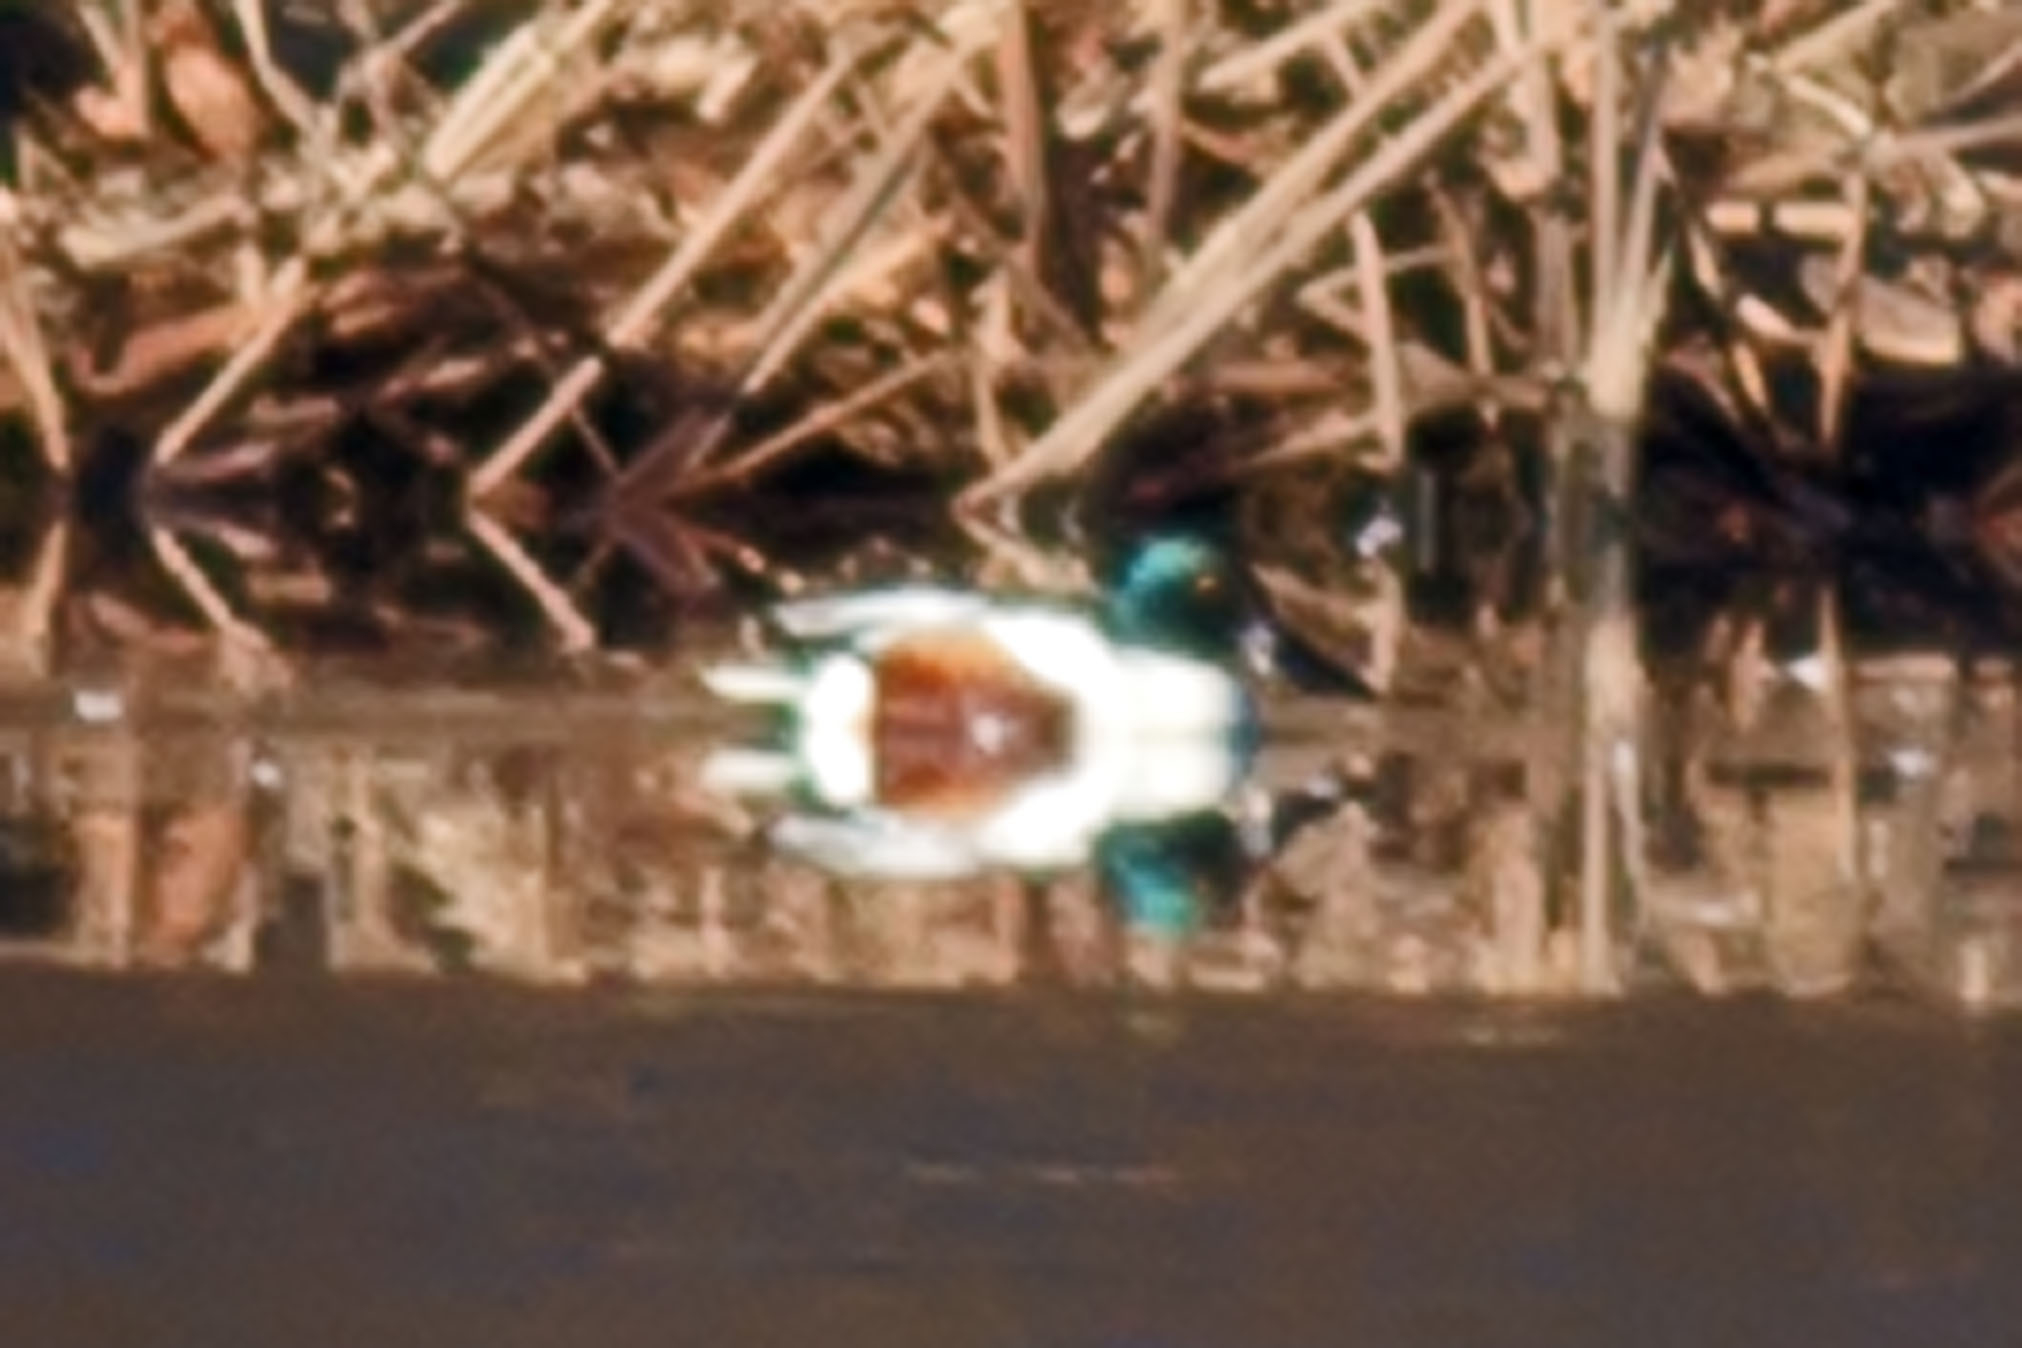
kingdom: Animalia
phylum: Chordata
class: Aves
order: Anseriformes
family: Anatidae
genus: Spatula
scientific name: Spatula clypeata
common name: Northern shoveler
